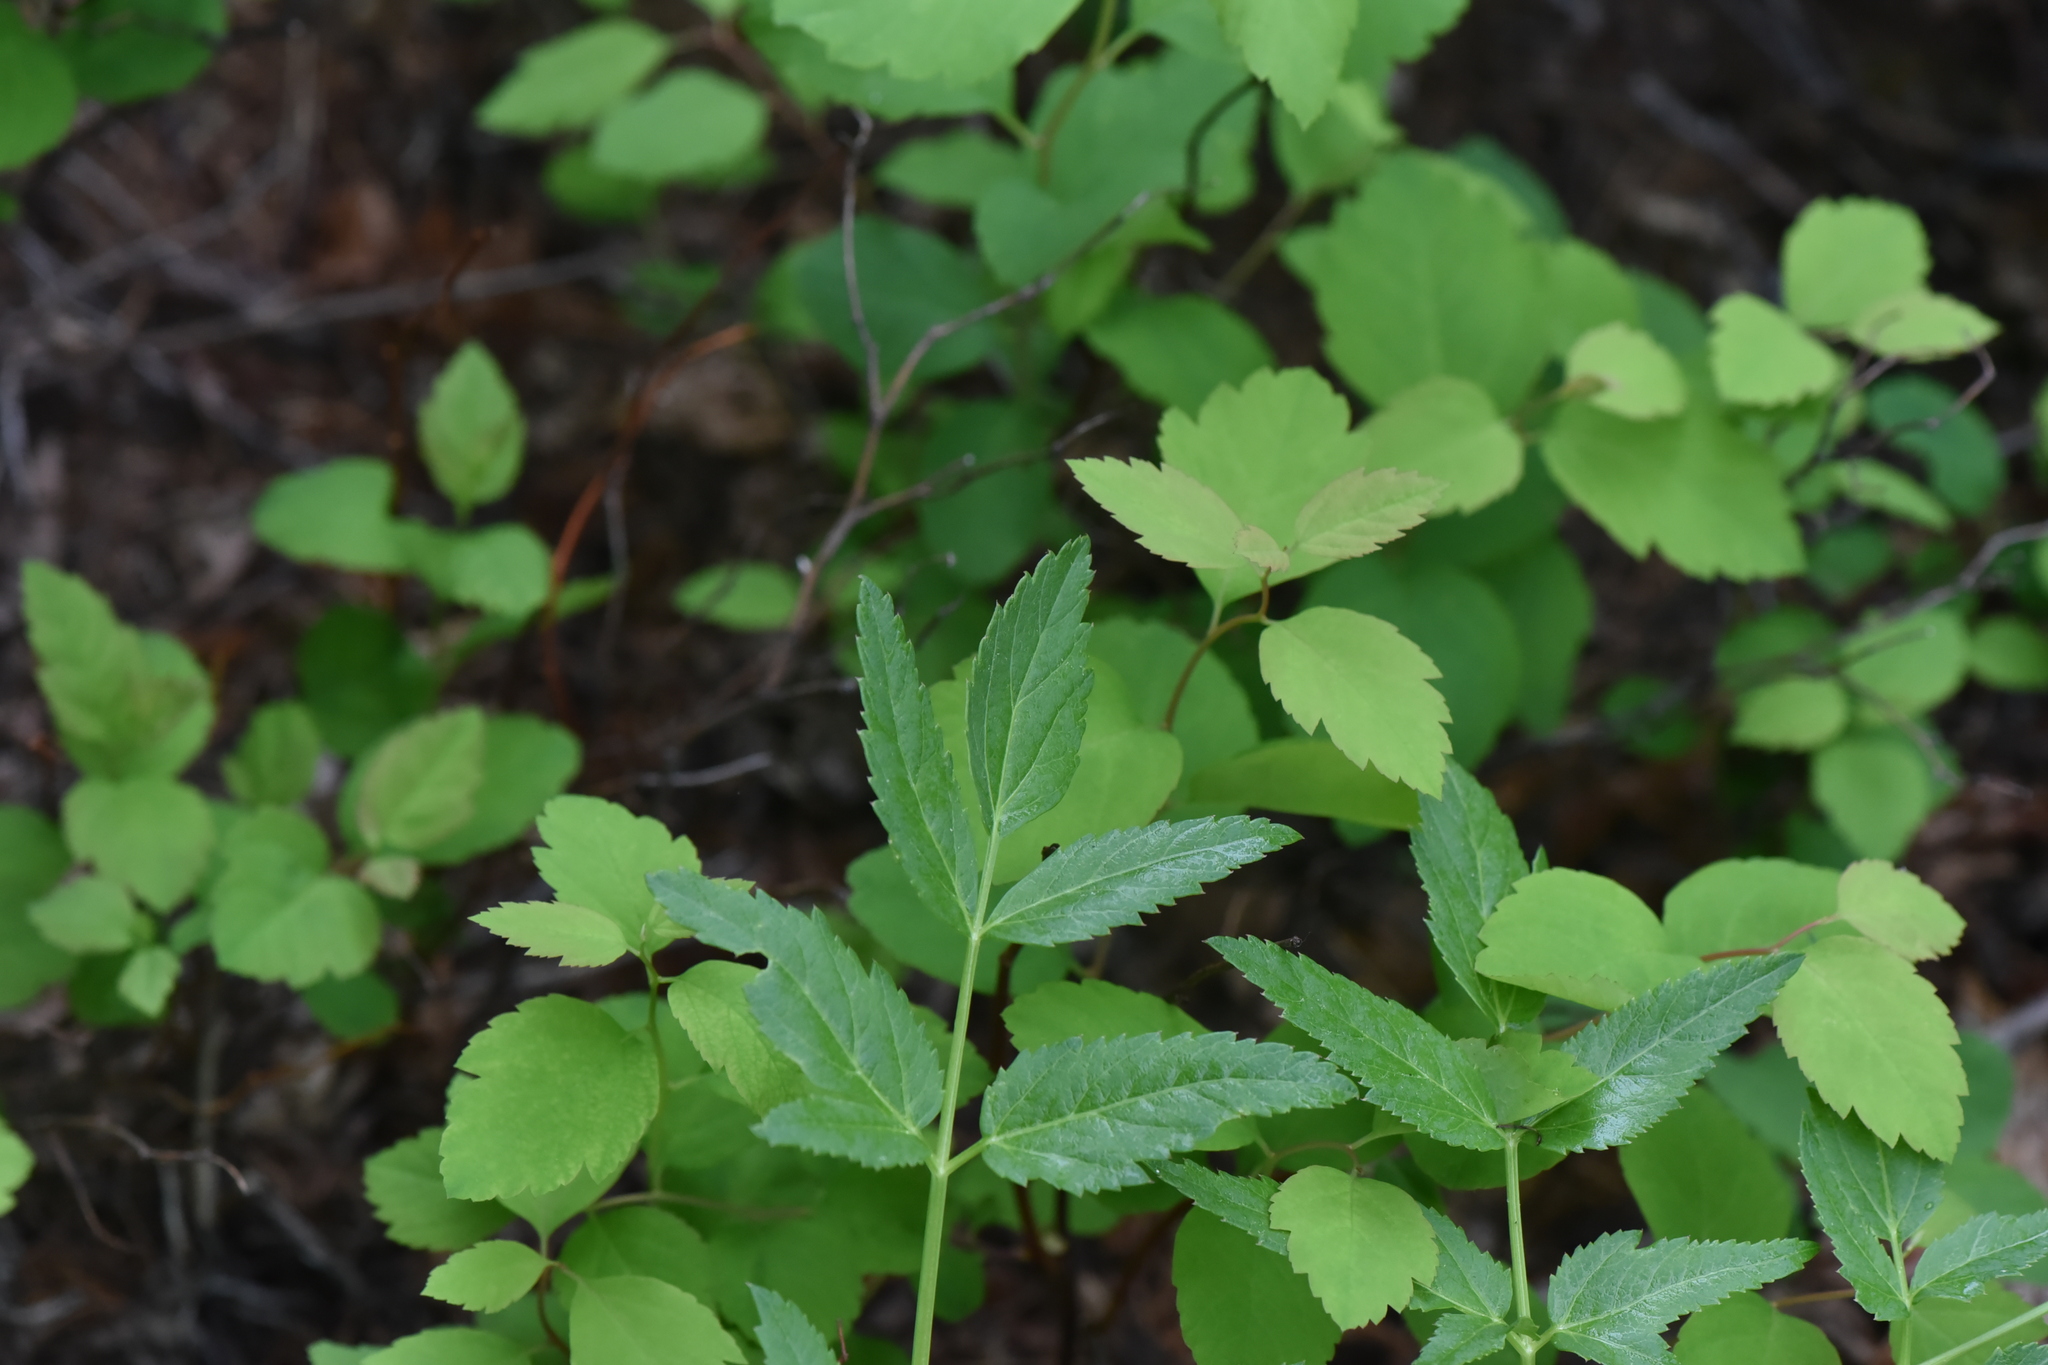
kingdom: Plantae
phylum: Tracheophyta
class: Magnoliopsida
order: Apiales
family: Apiaceae
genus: Angelica
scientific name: Angelica arguta
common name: Lyall's angelica
